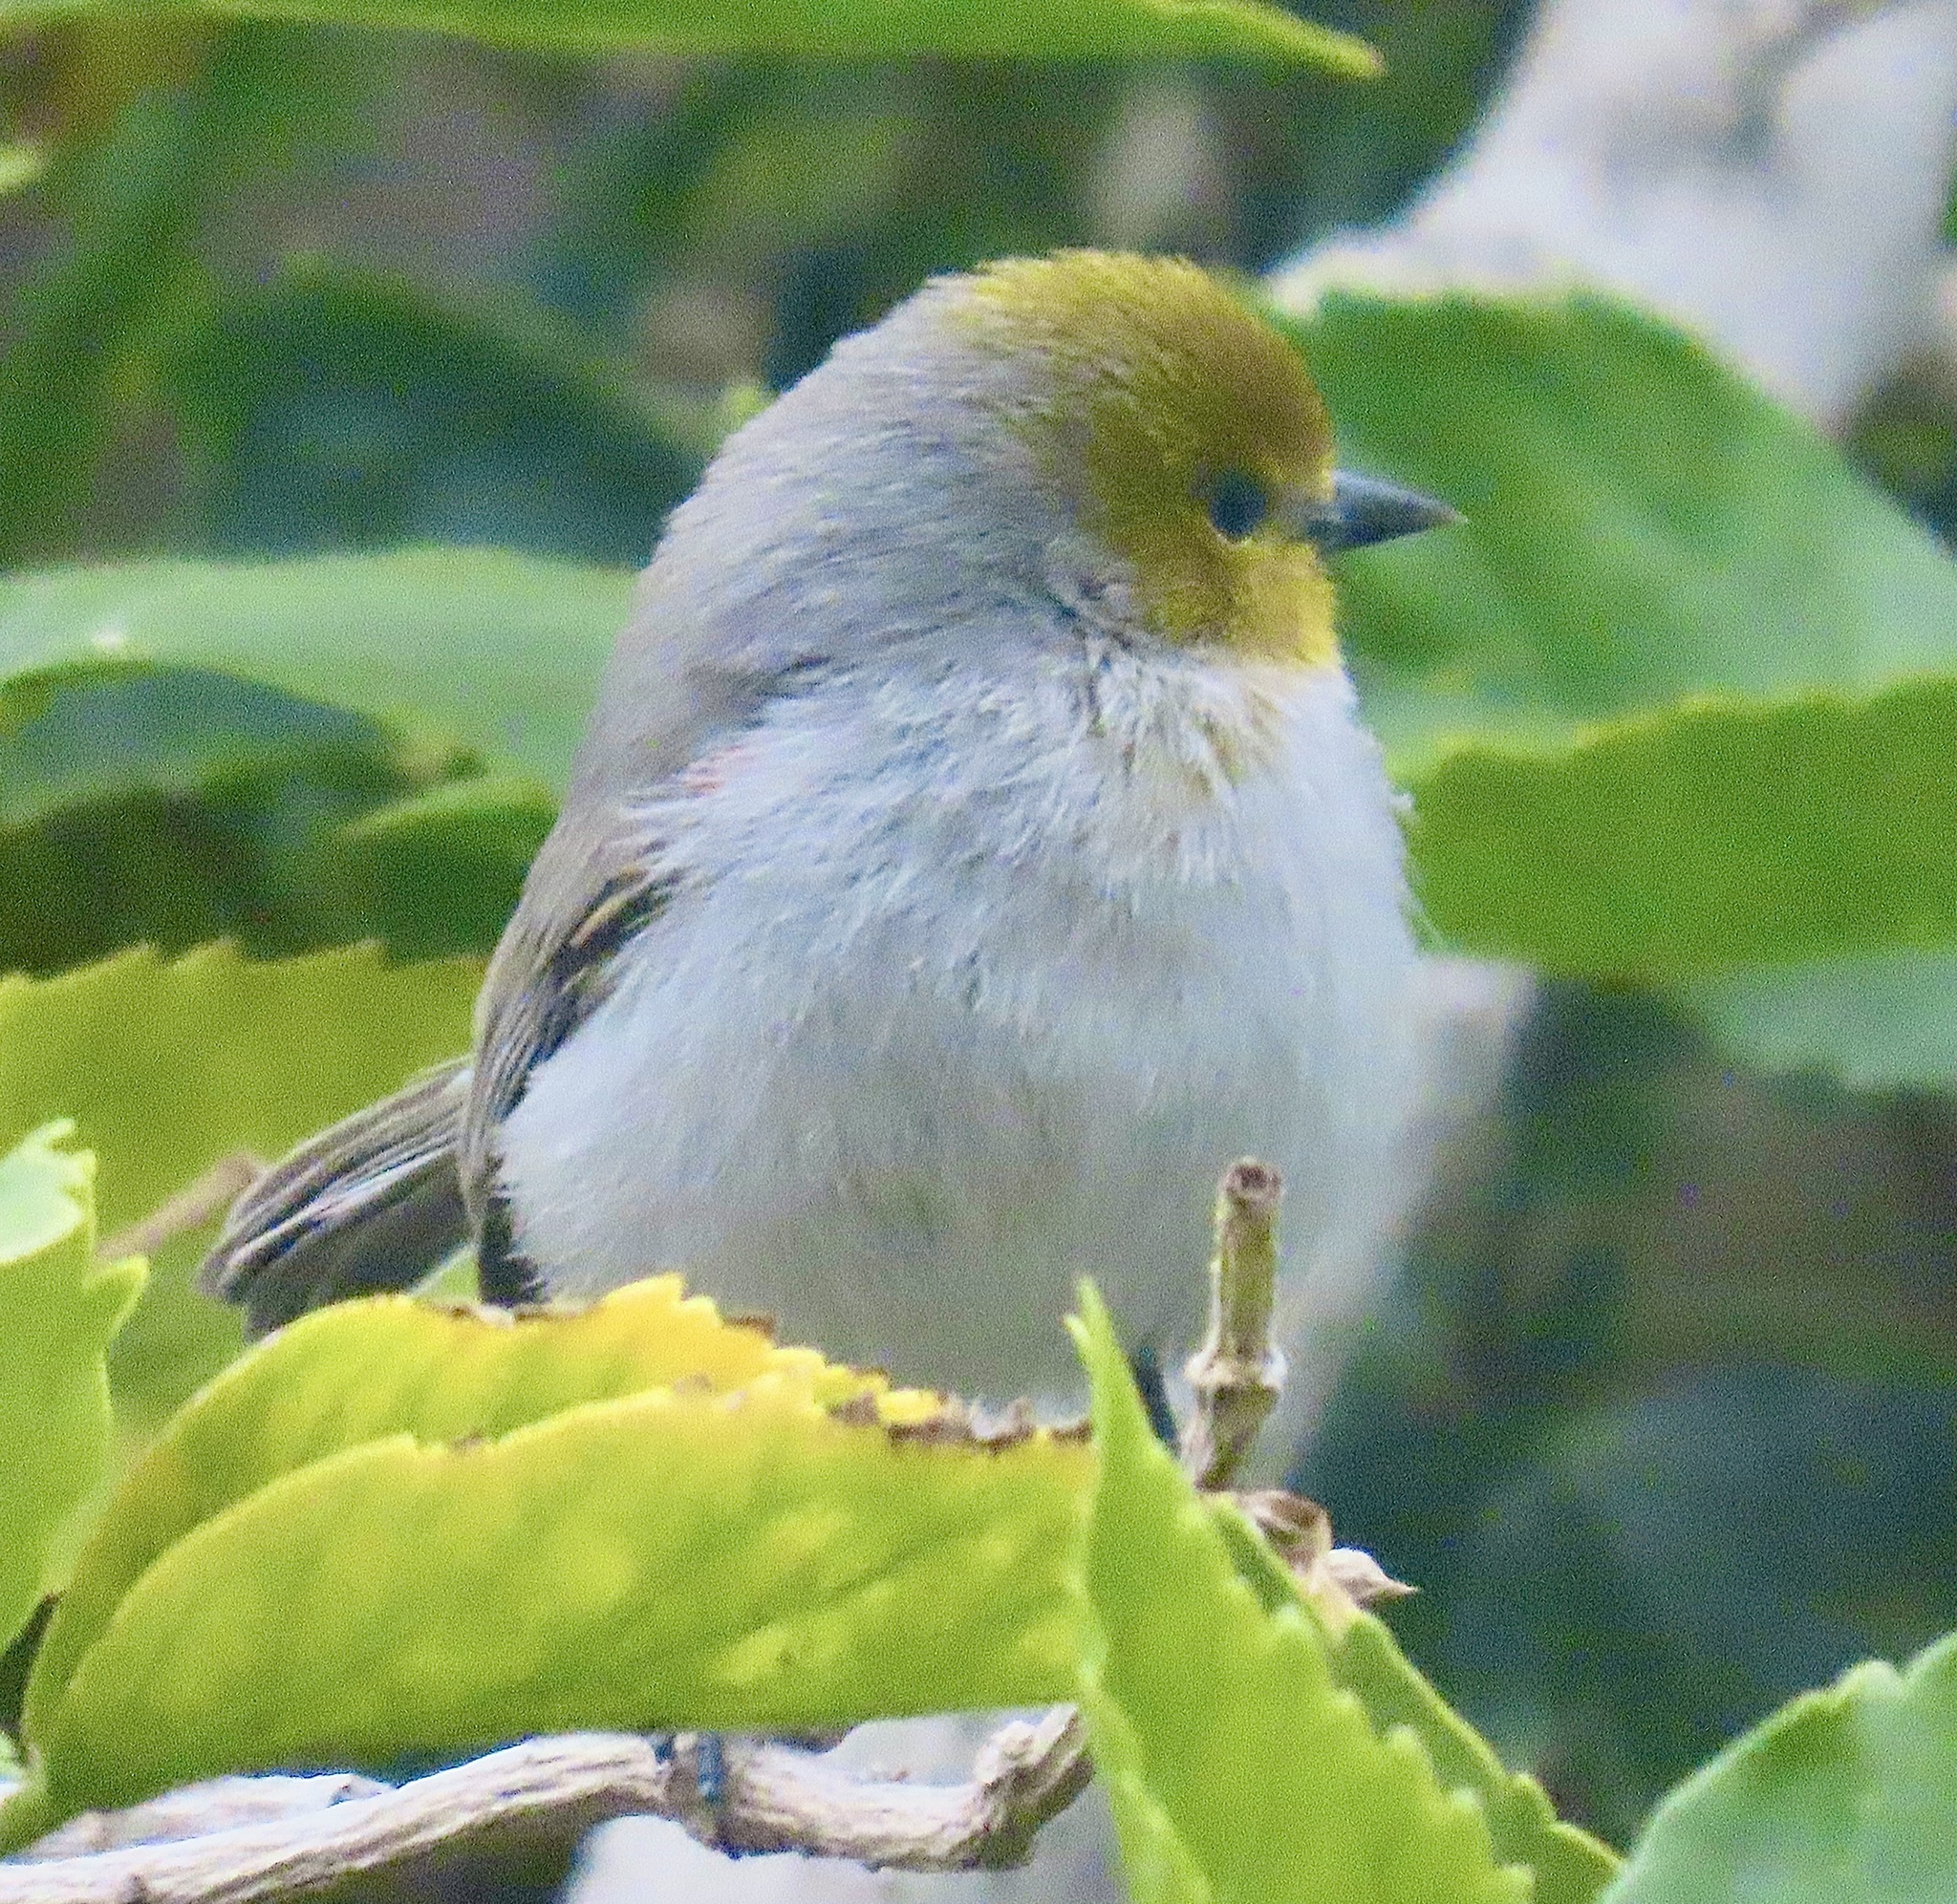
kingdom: Animalia
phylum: Chordata
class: Aves
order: Passeriformes
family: Remizidae
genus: Auriparus
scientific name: Auriparus flaviceps
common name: Verdin
